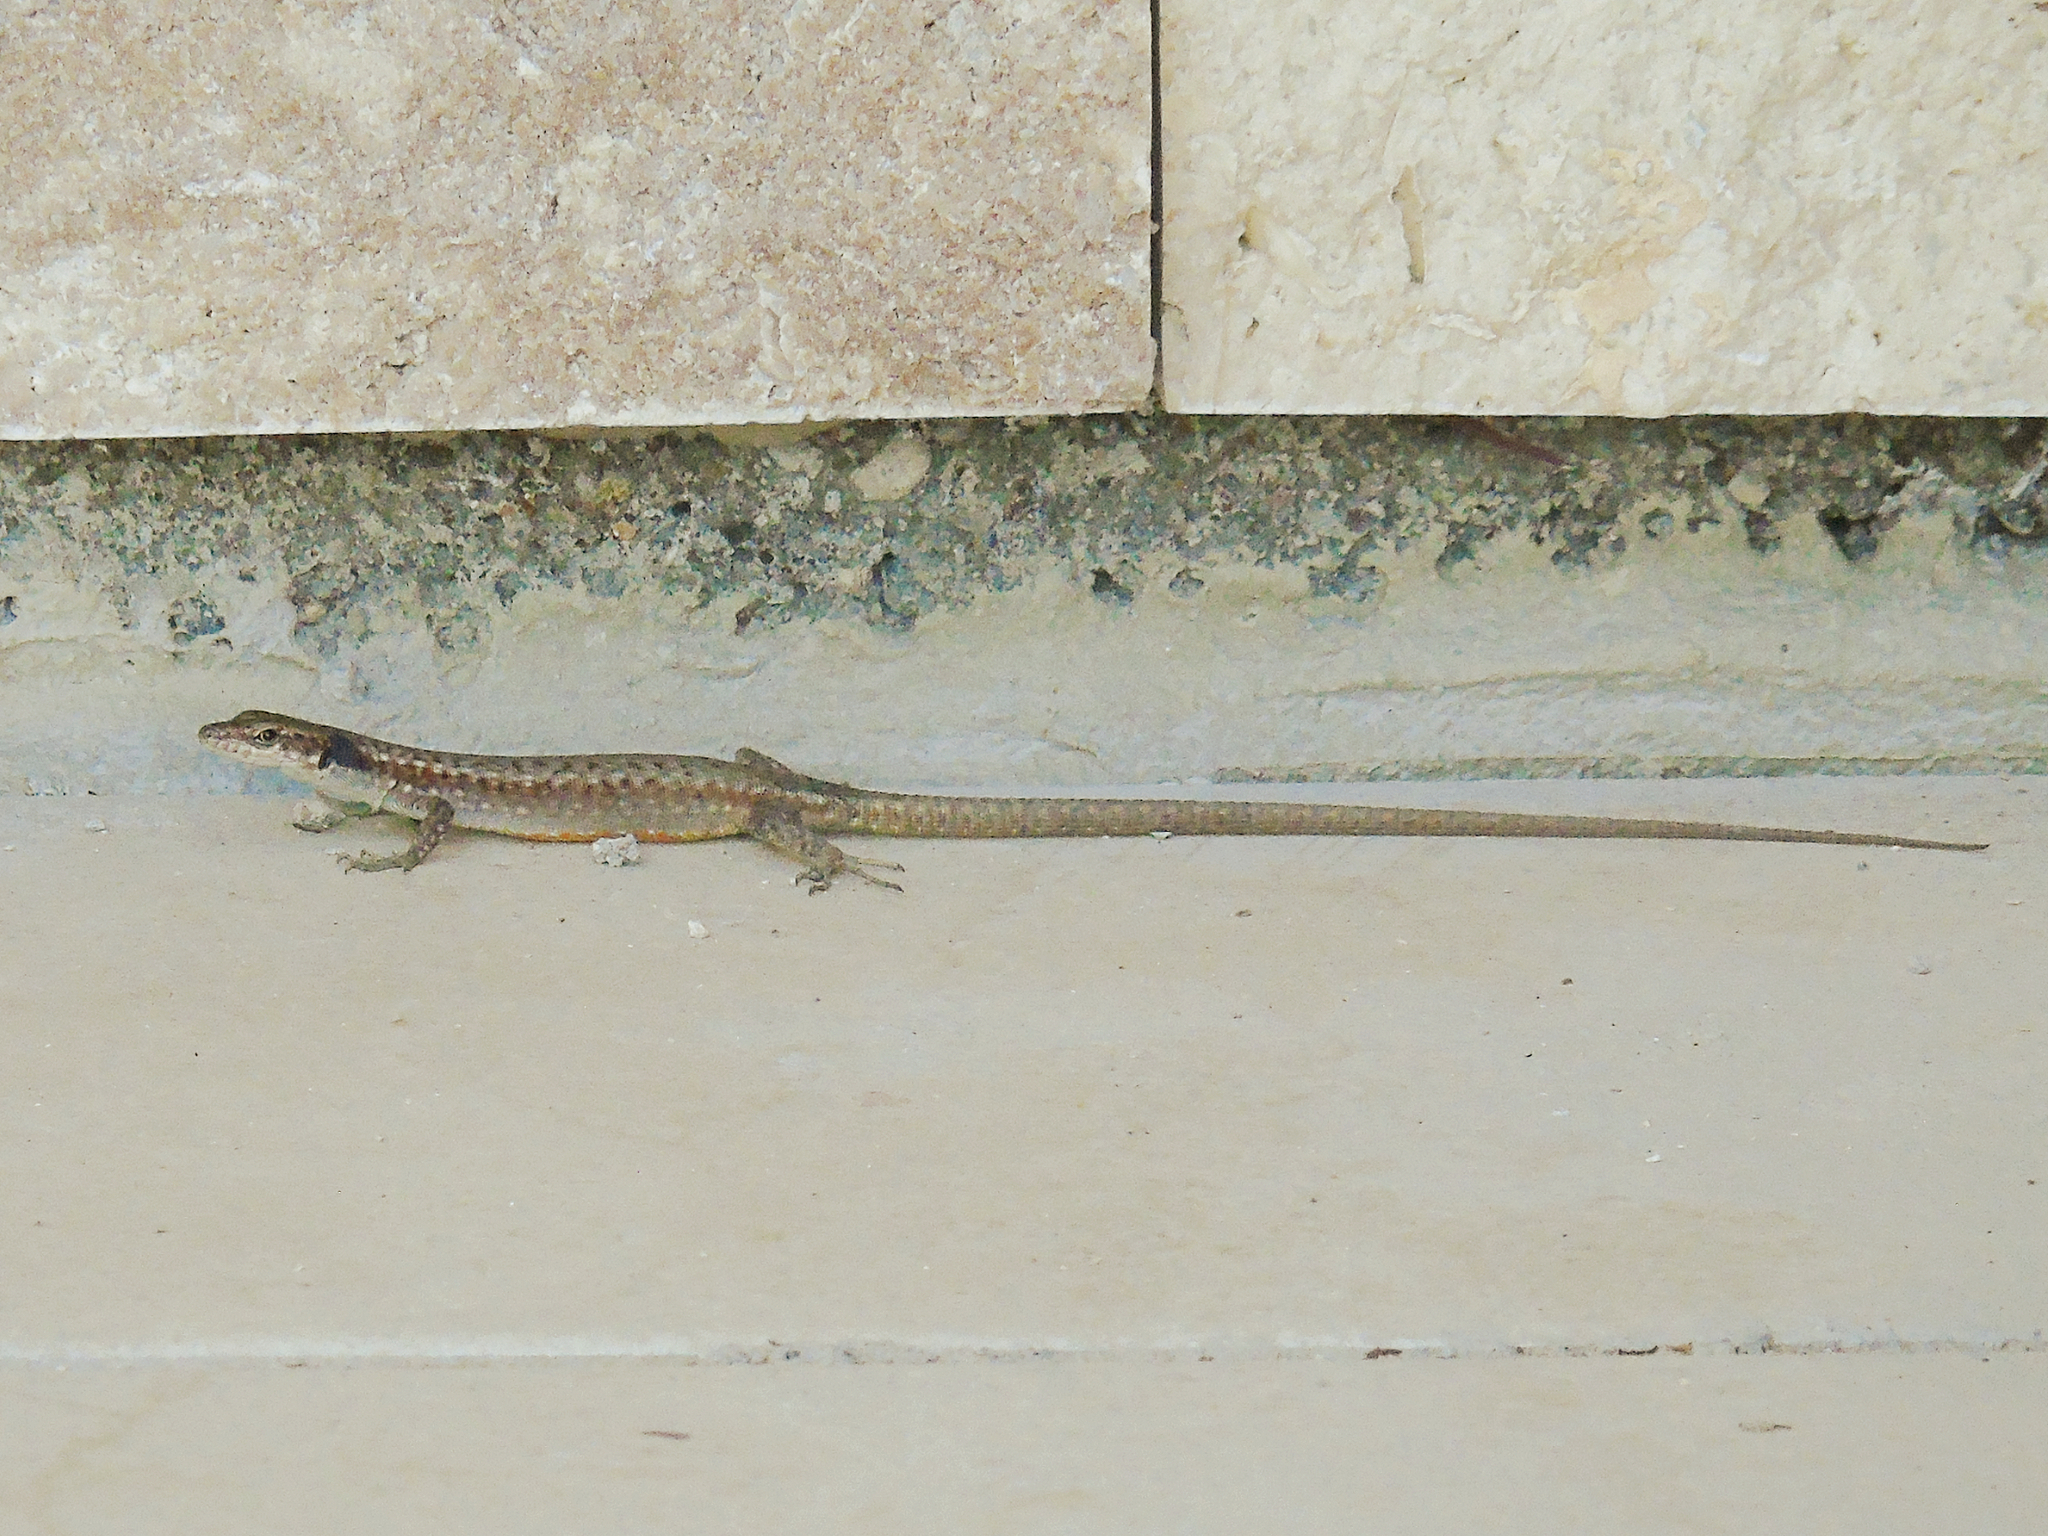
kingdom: Animalia
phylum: Chordata
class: Squamata
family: Lacertidae
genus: Darevskia
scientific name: Darevskia
